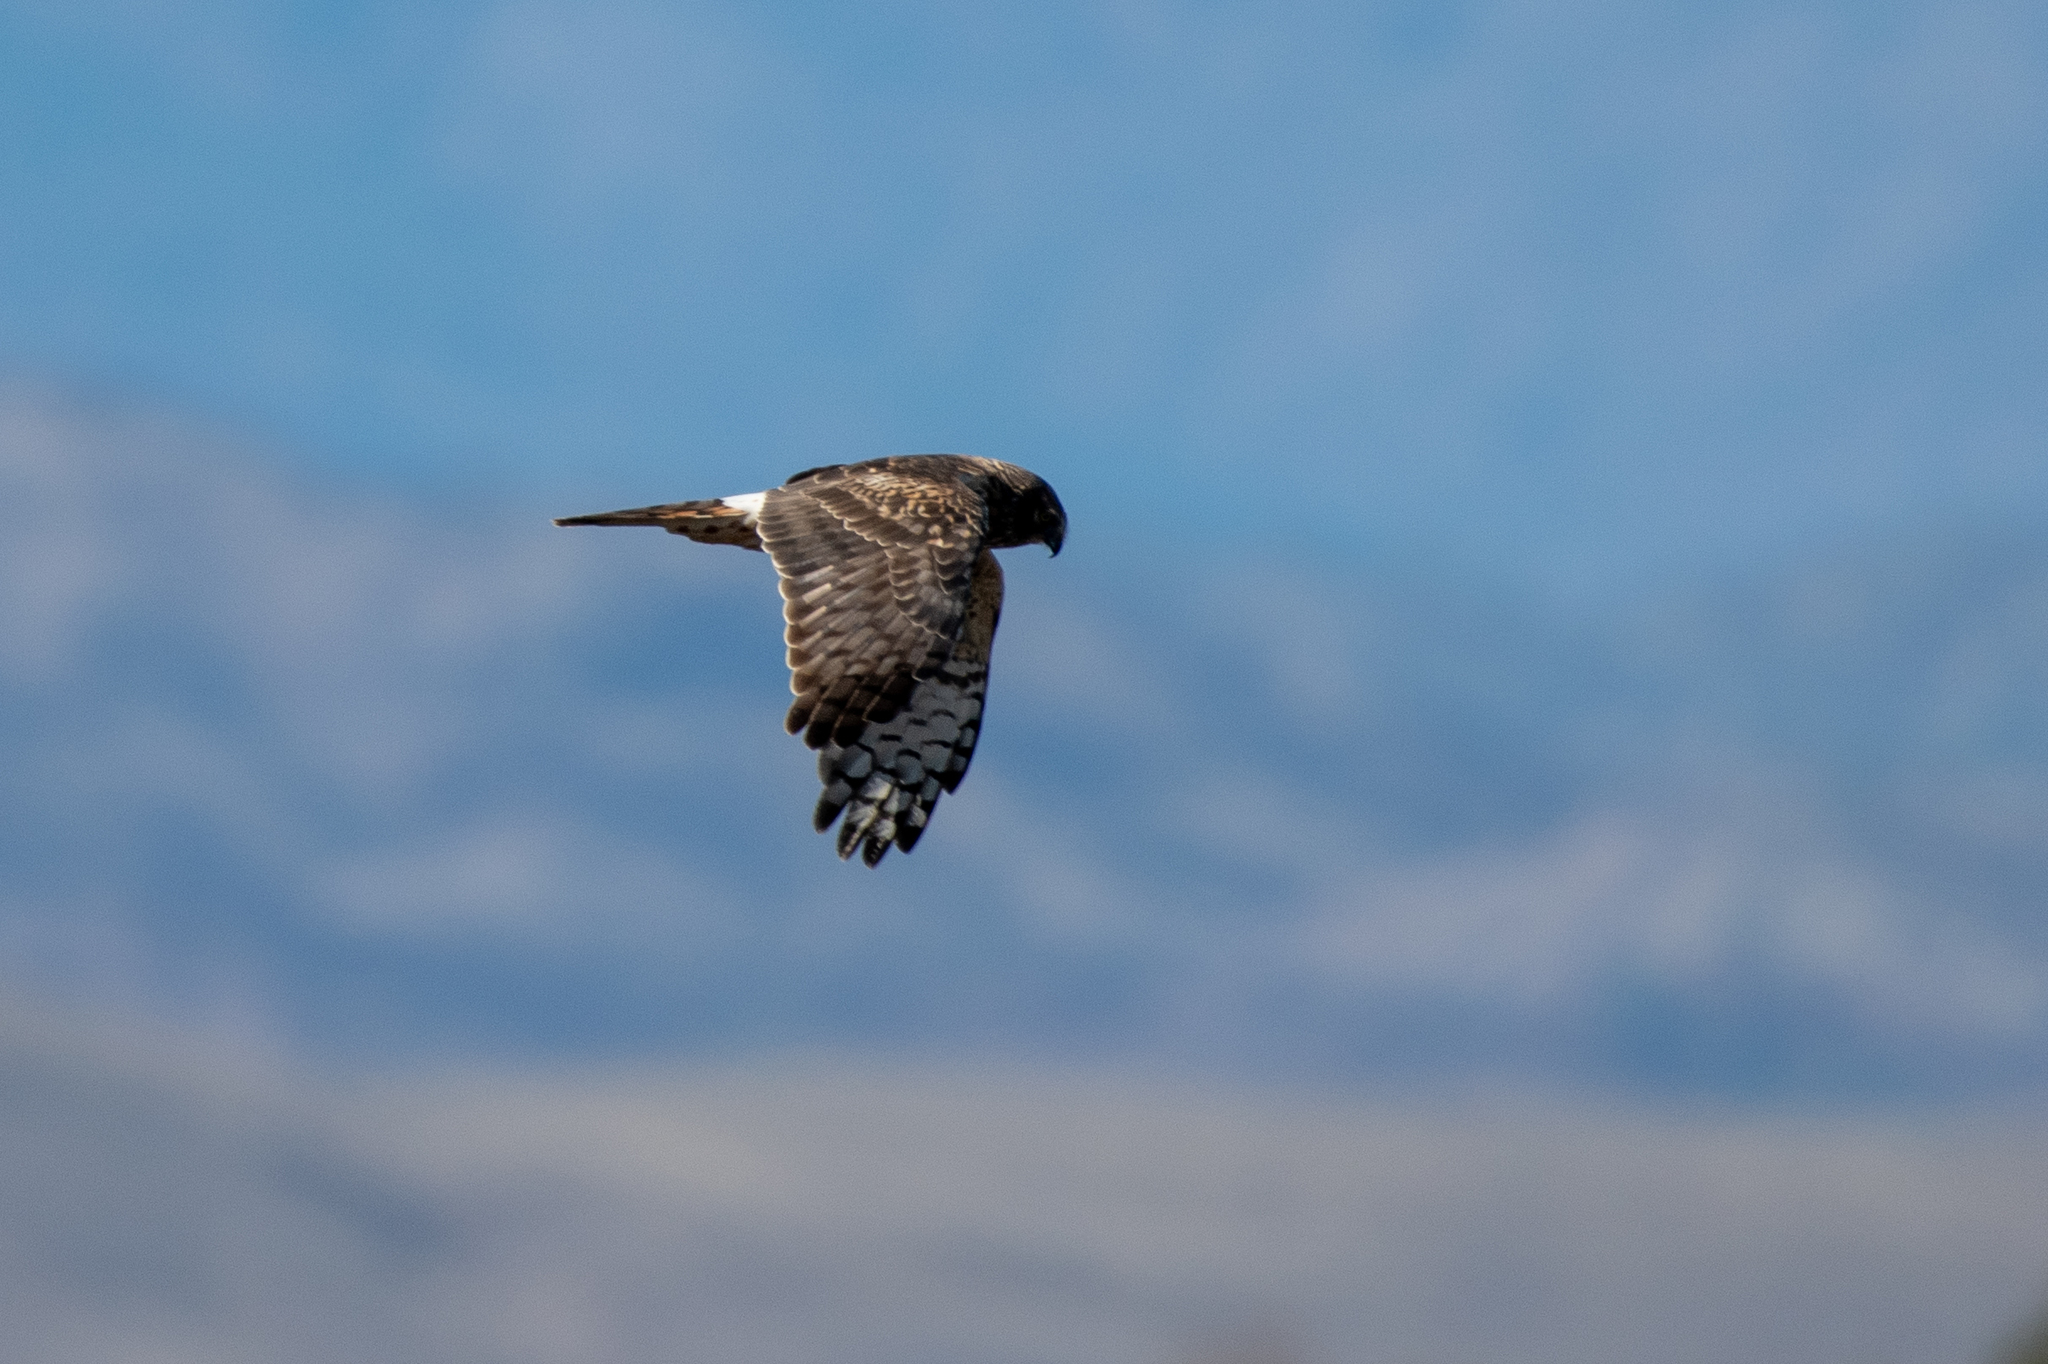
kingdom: Animalia
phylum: Chordata
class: Aves
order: Accipitriformes
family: Accipitridae
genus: Circus
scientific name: Circus cyaneus
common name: Hen harrier
